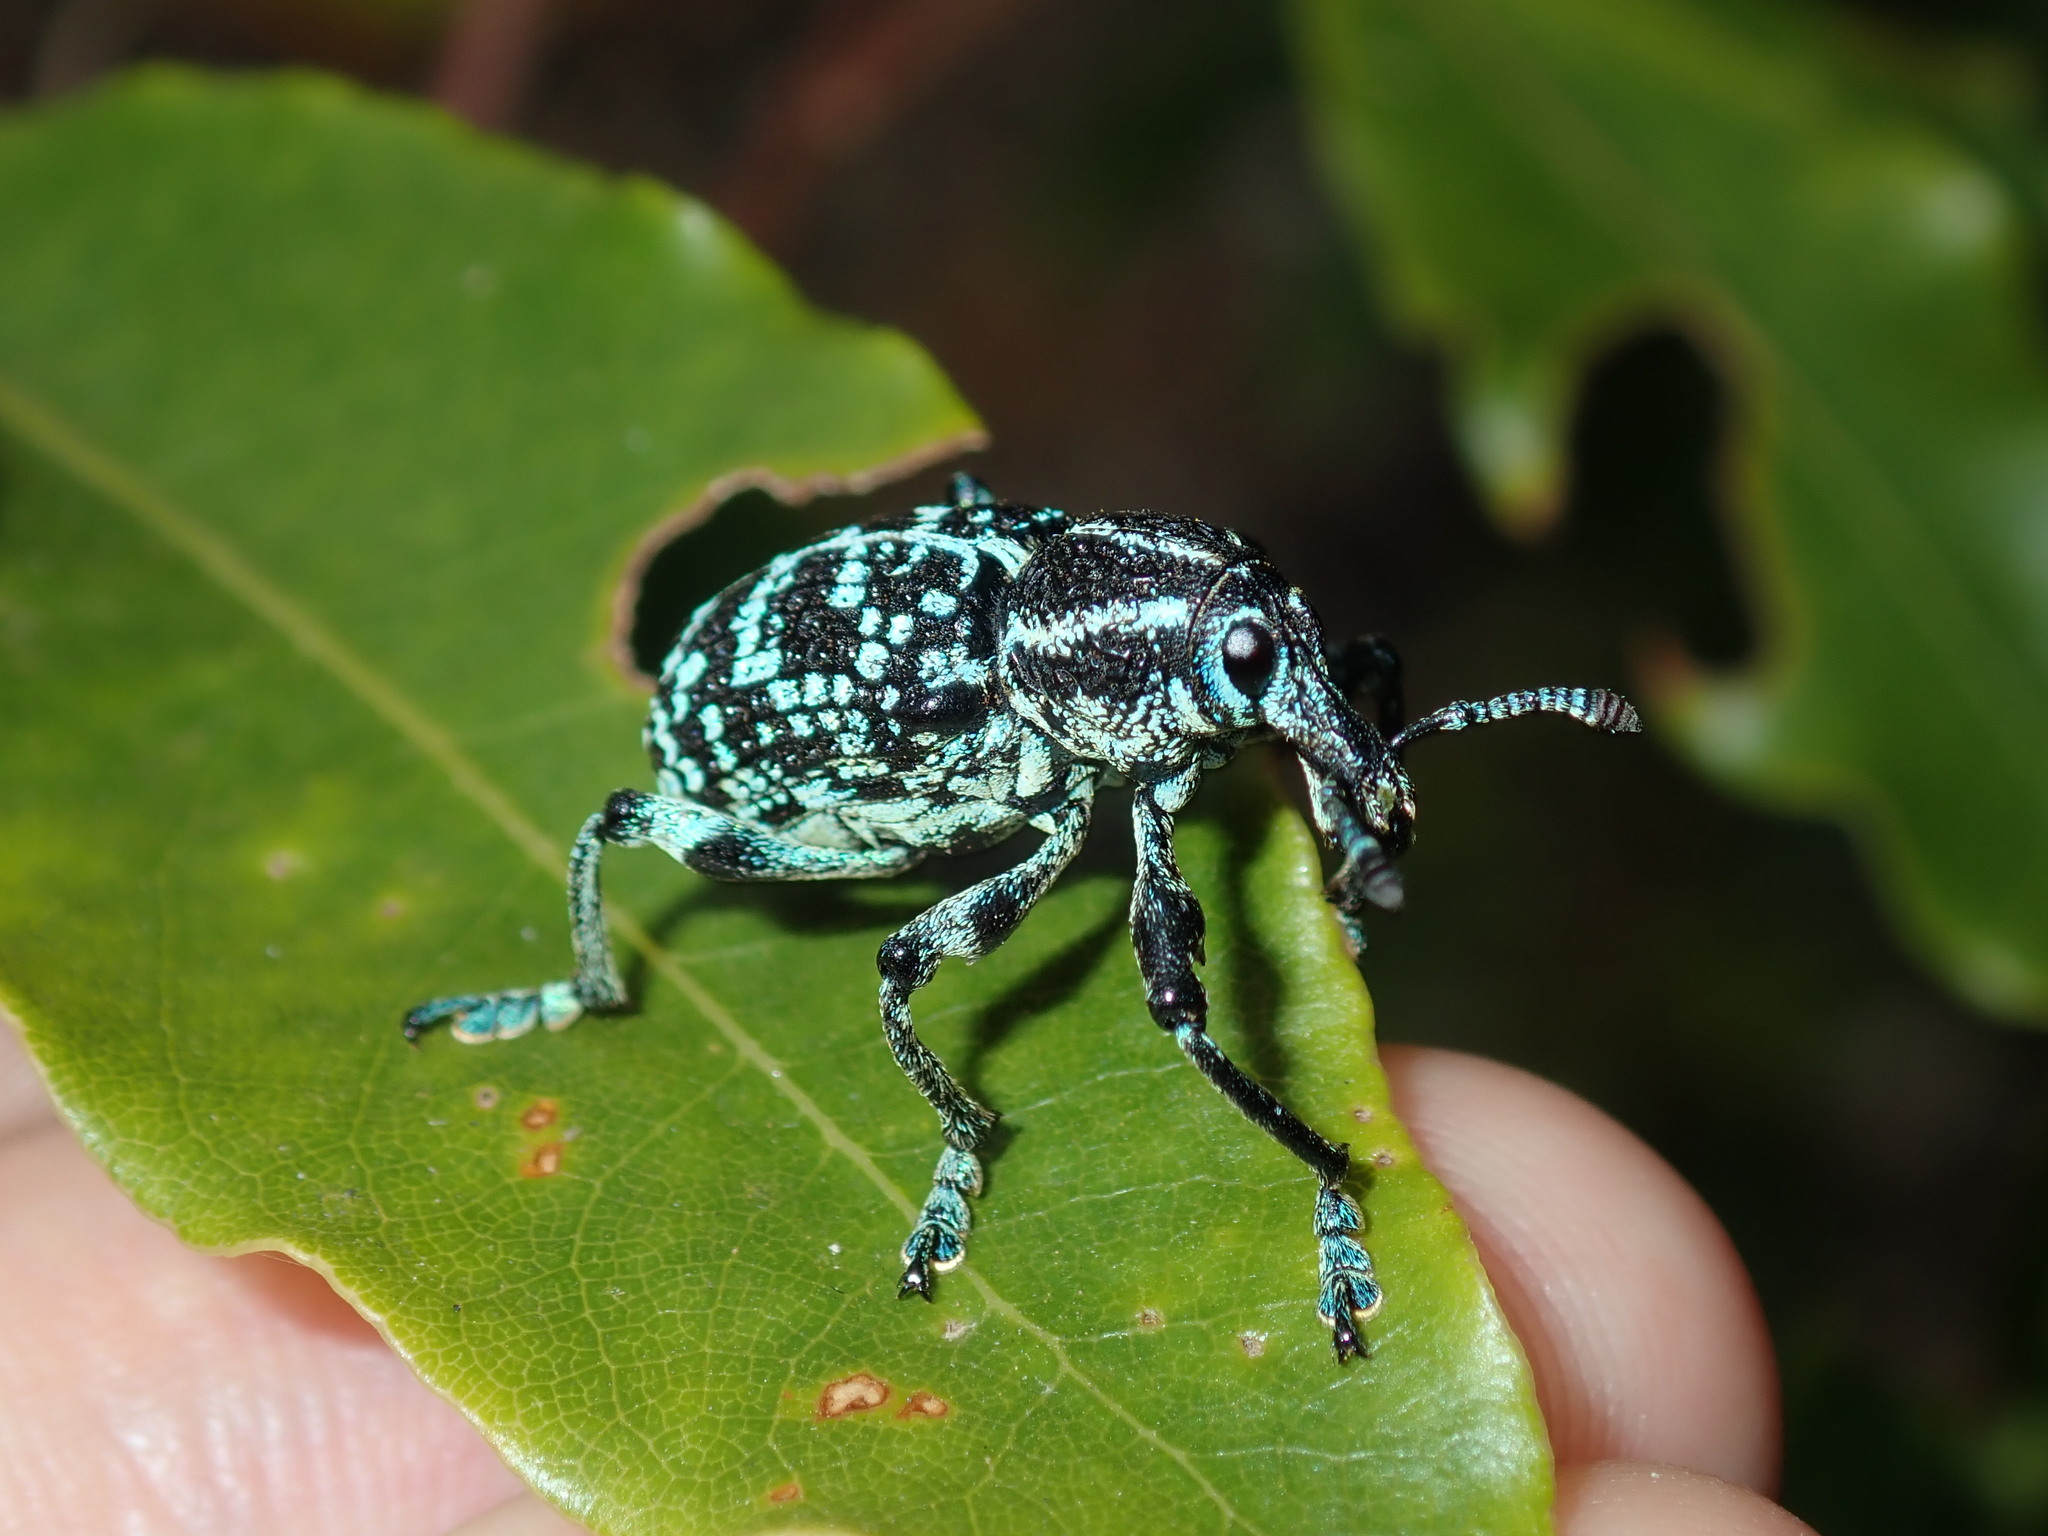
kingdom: Animalia
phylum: Arthropoda
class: Insecta
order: Coleoptera
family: Curculionidae
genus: Chrysolopus
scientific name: Chrysolopus spectabilis
